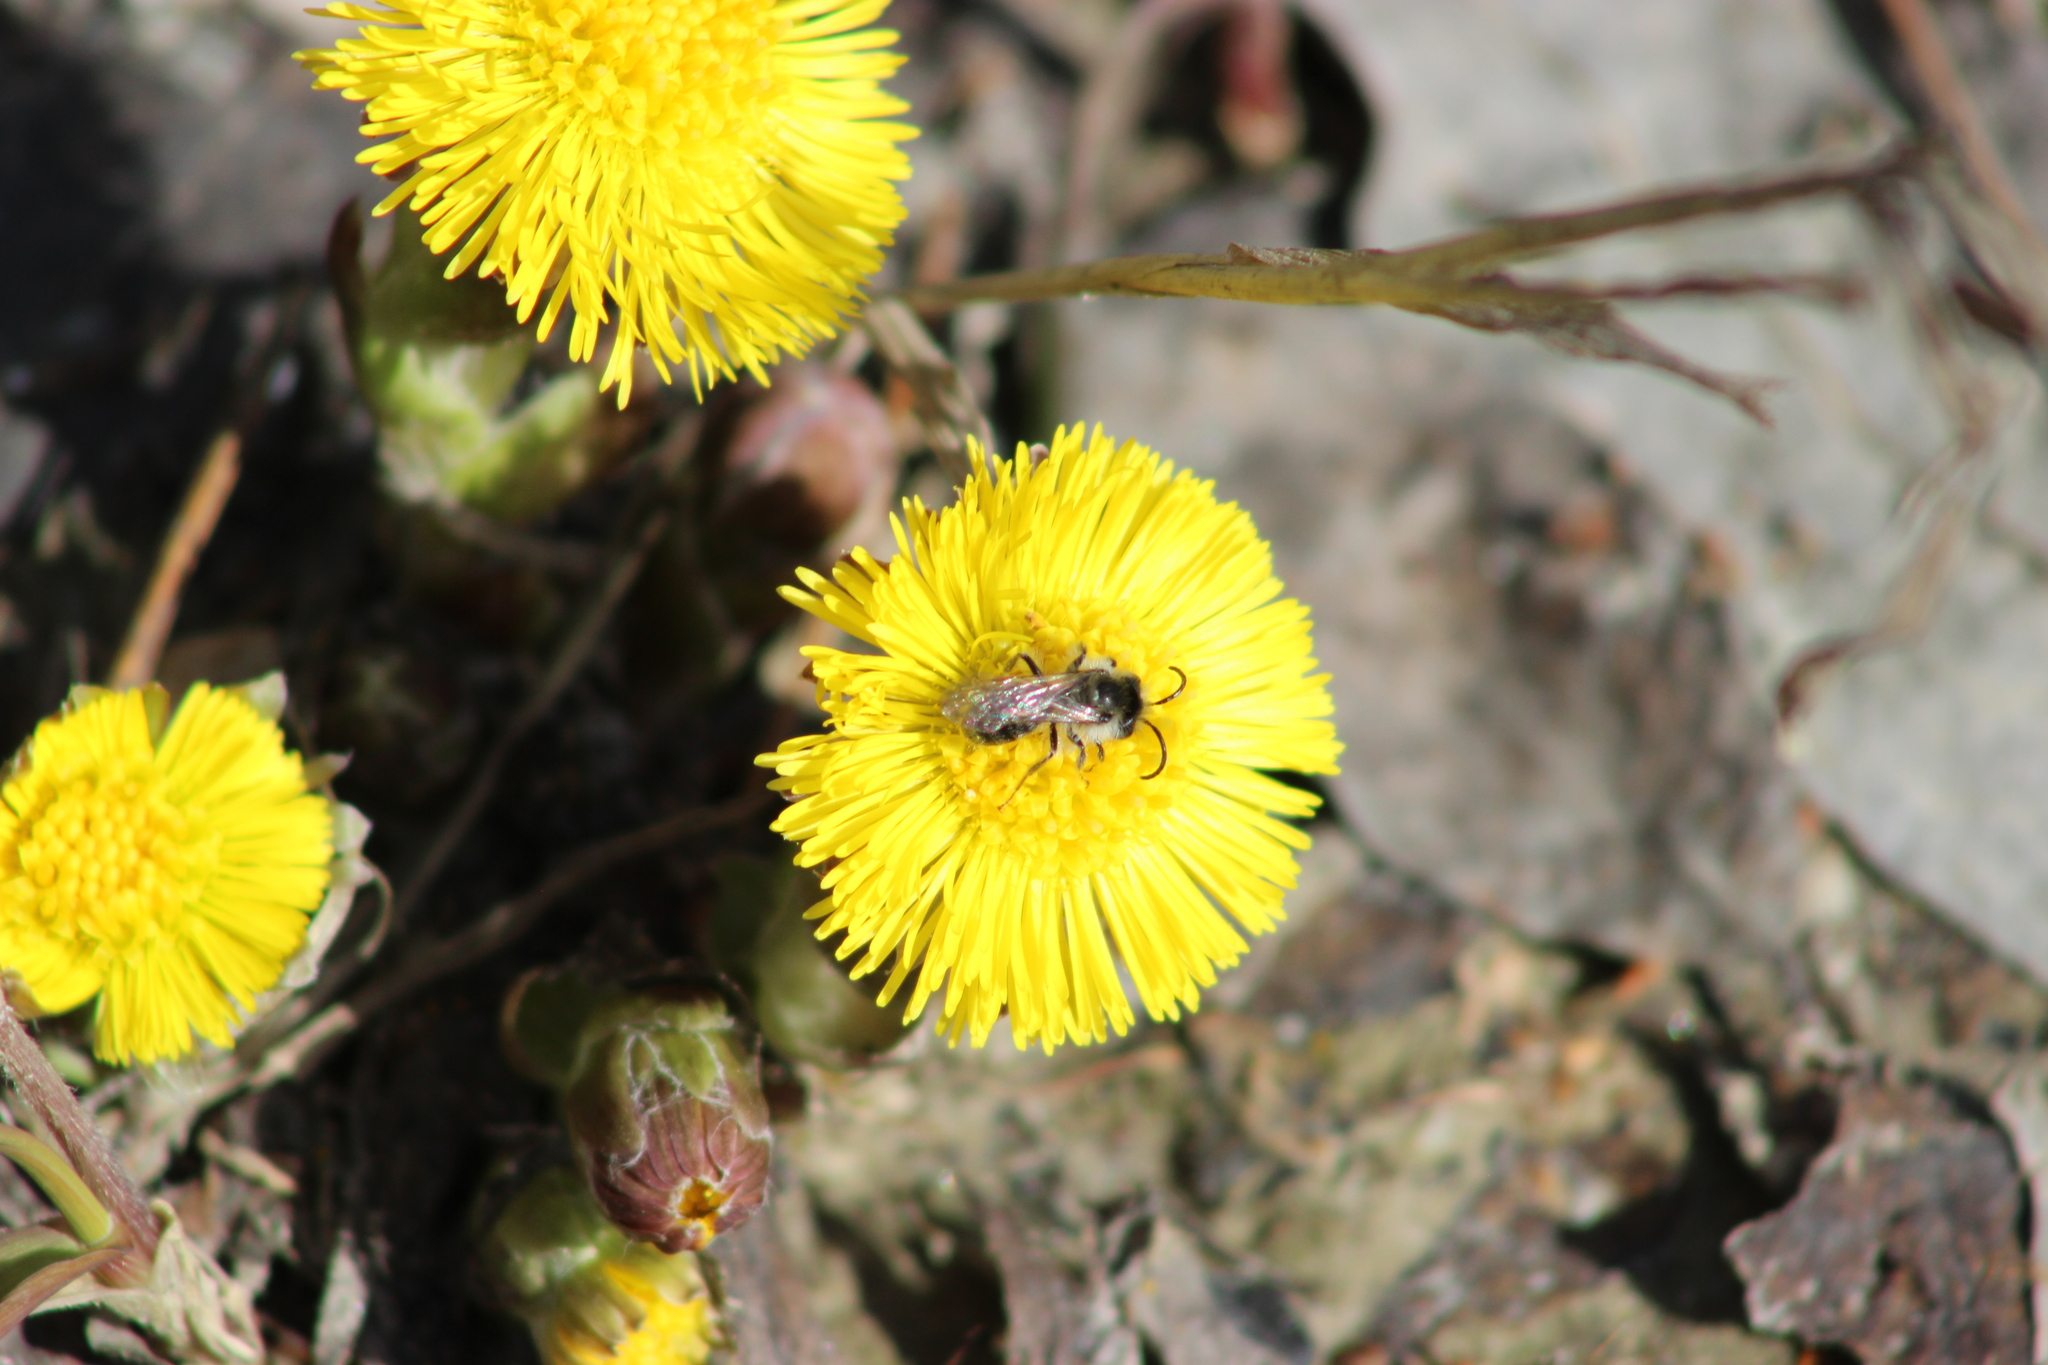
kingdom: Animalia
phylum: Arthropoda
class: Insecta
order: Hymenoptera
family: Apidae
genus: Apis
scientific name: Apis mellifera
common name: Honey bee
